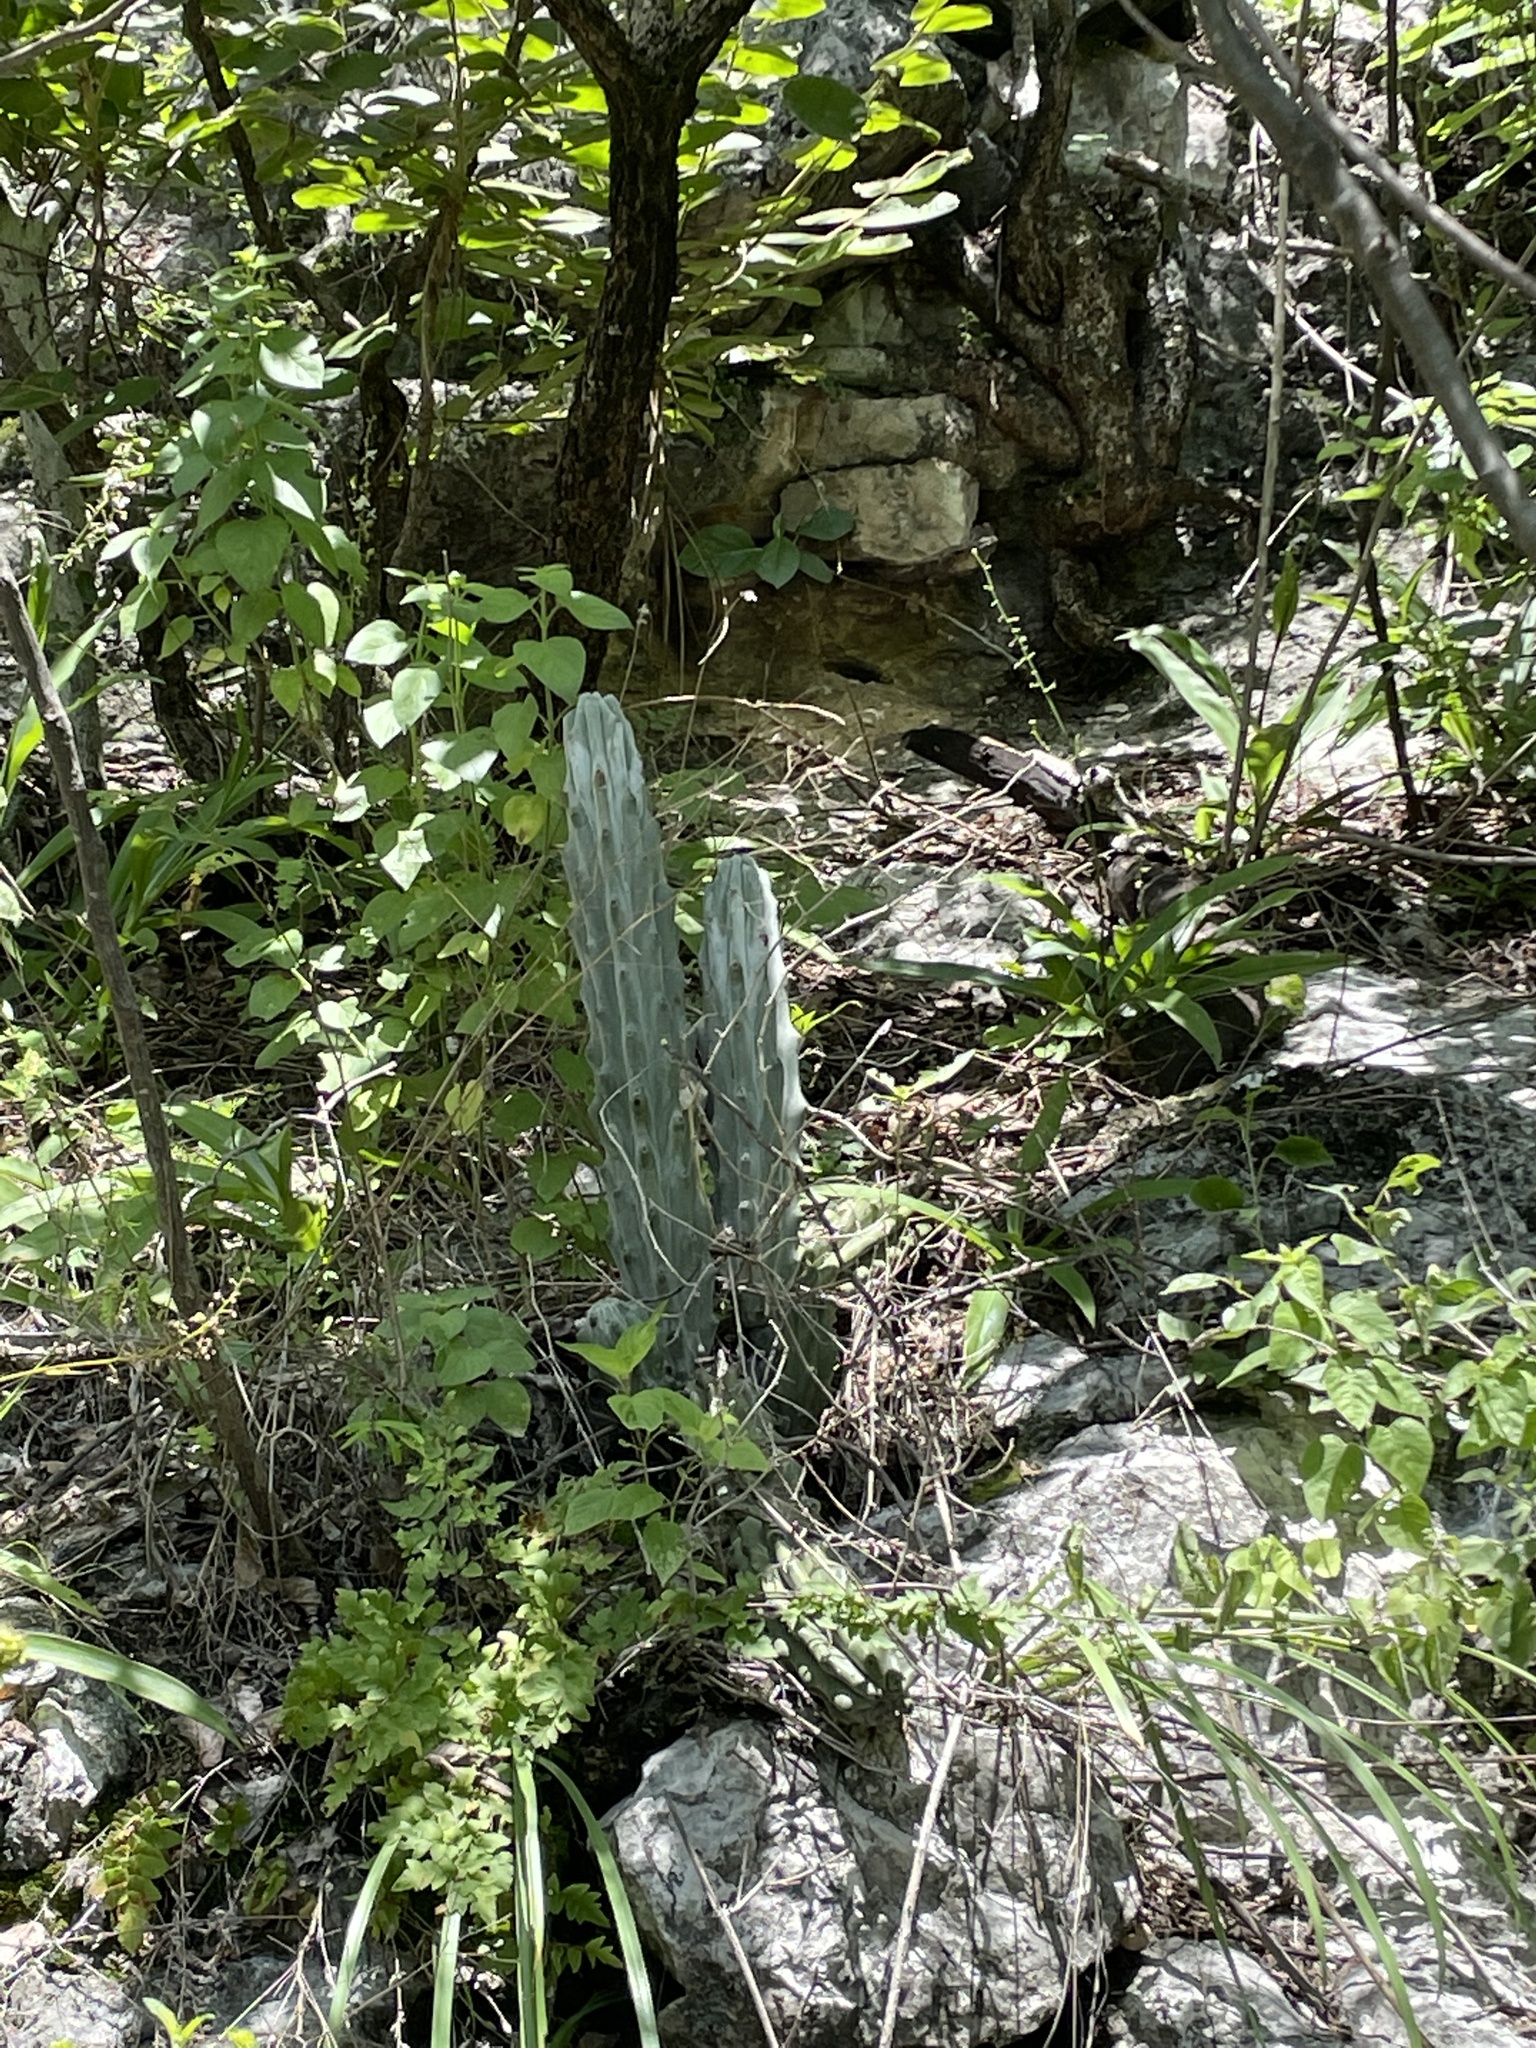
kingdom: Plantae
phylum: Tracheophyta
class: Magnoliopsida
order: Caryophyllales
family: Cactaceae
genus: Stenocereus
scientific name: Stenocereus beneckei
